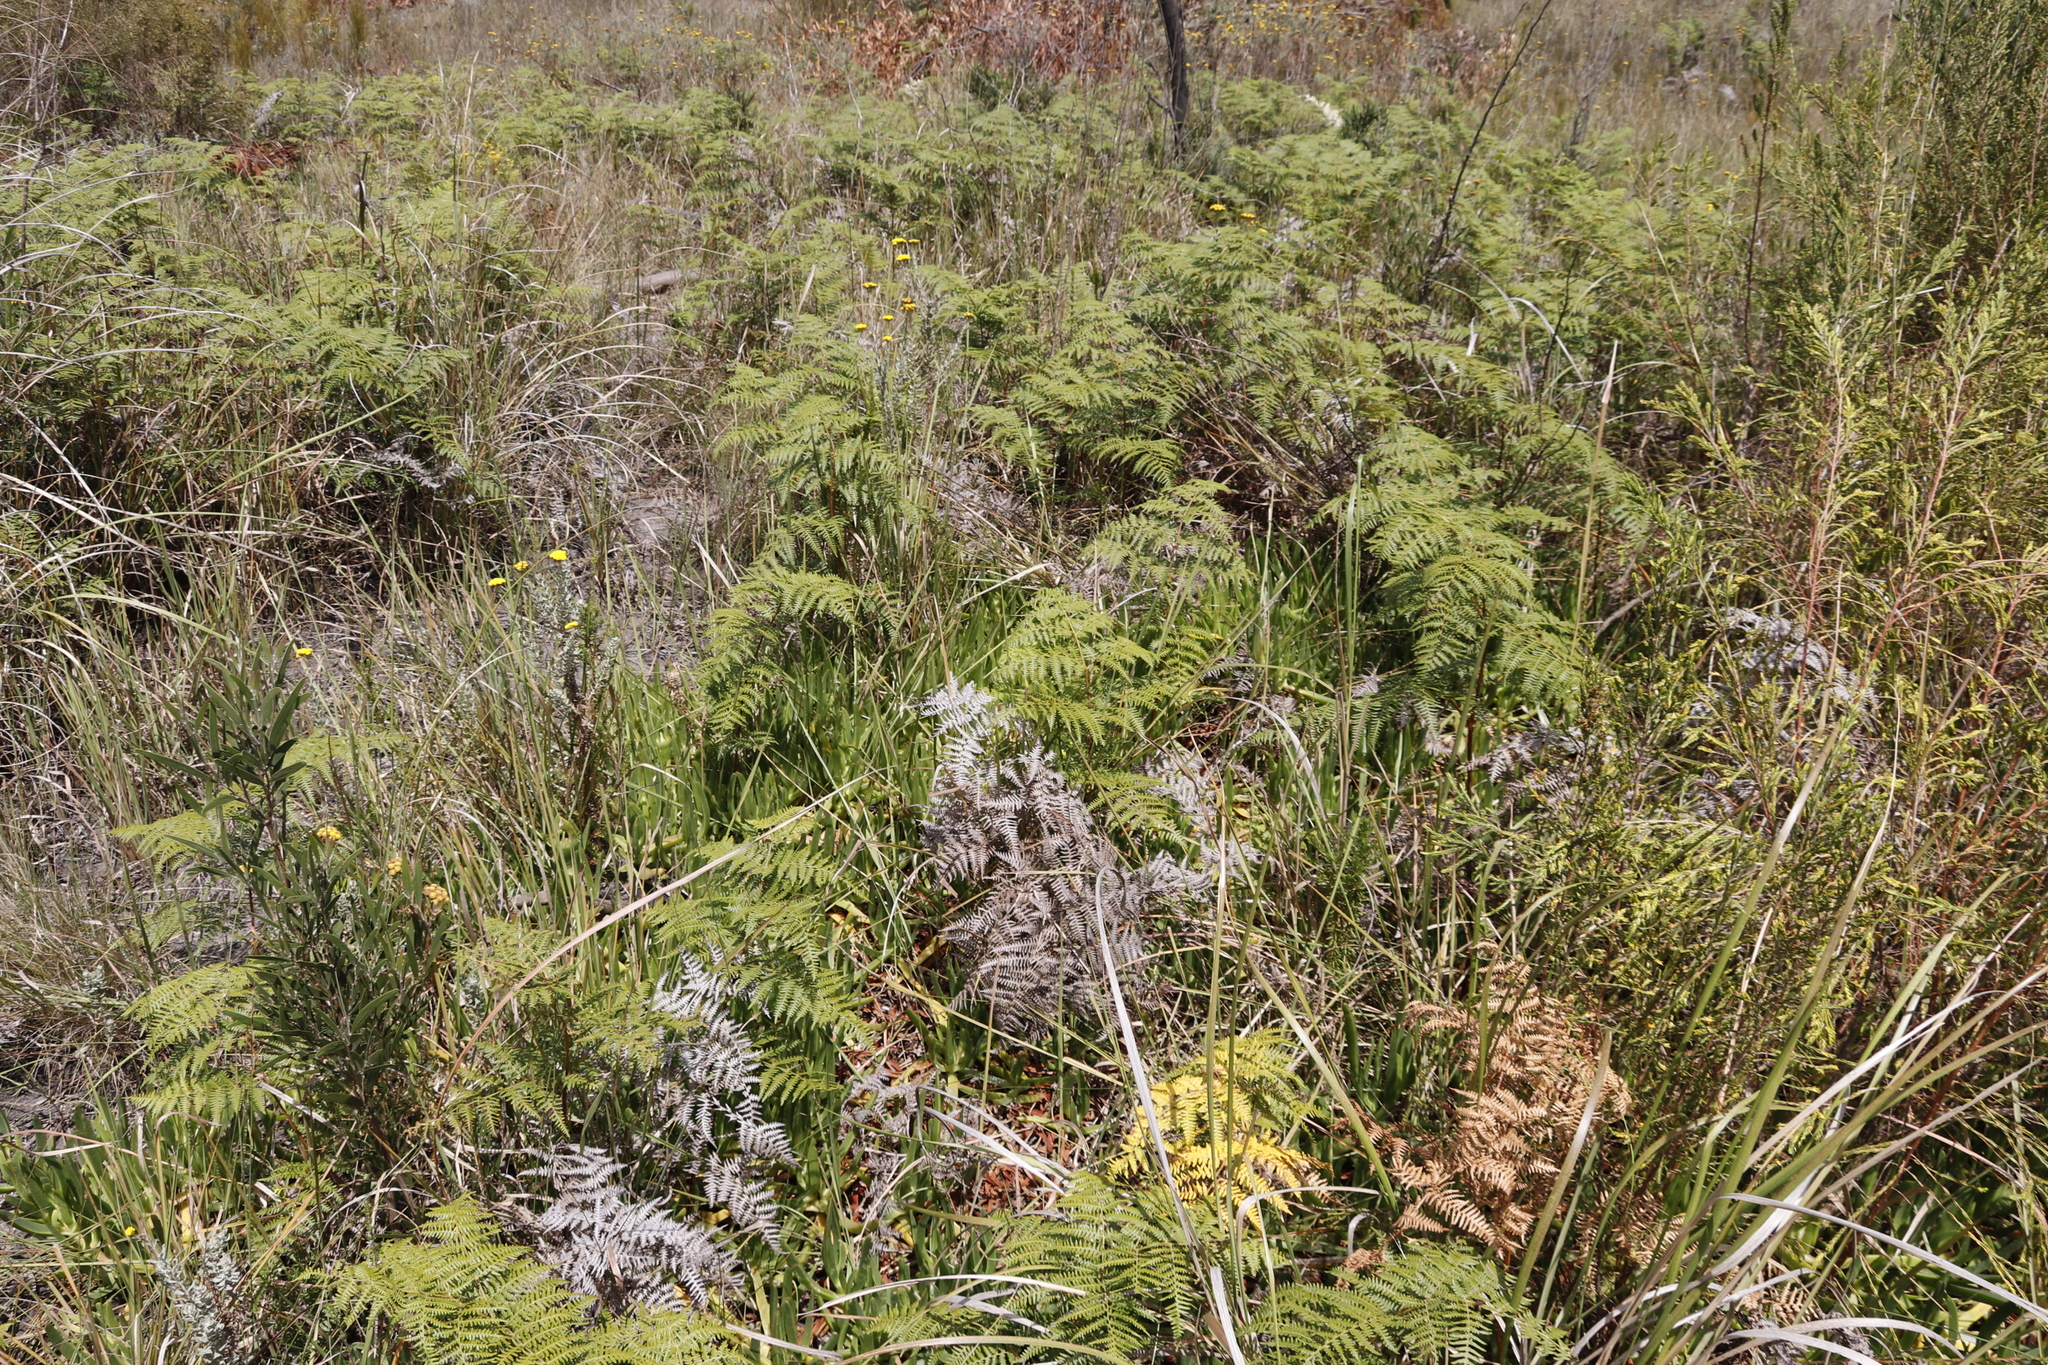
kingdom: Plantae
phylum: Tracheophyta
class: Polypodiopsida
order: Polypodiales
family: Dennstaedtiaceae
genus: Pteridium
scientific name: Pteridium aquilinum
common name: Bracken
